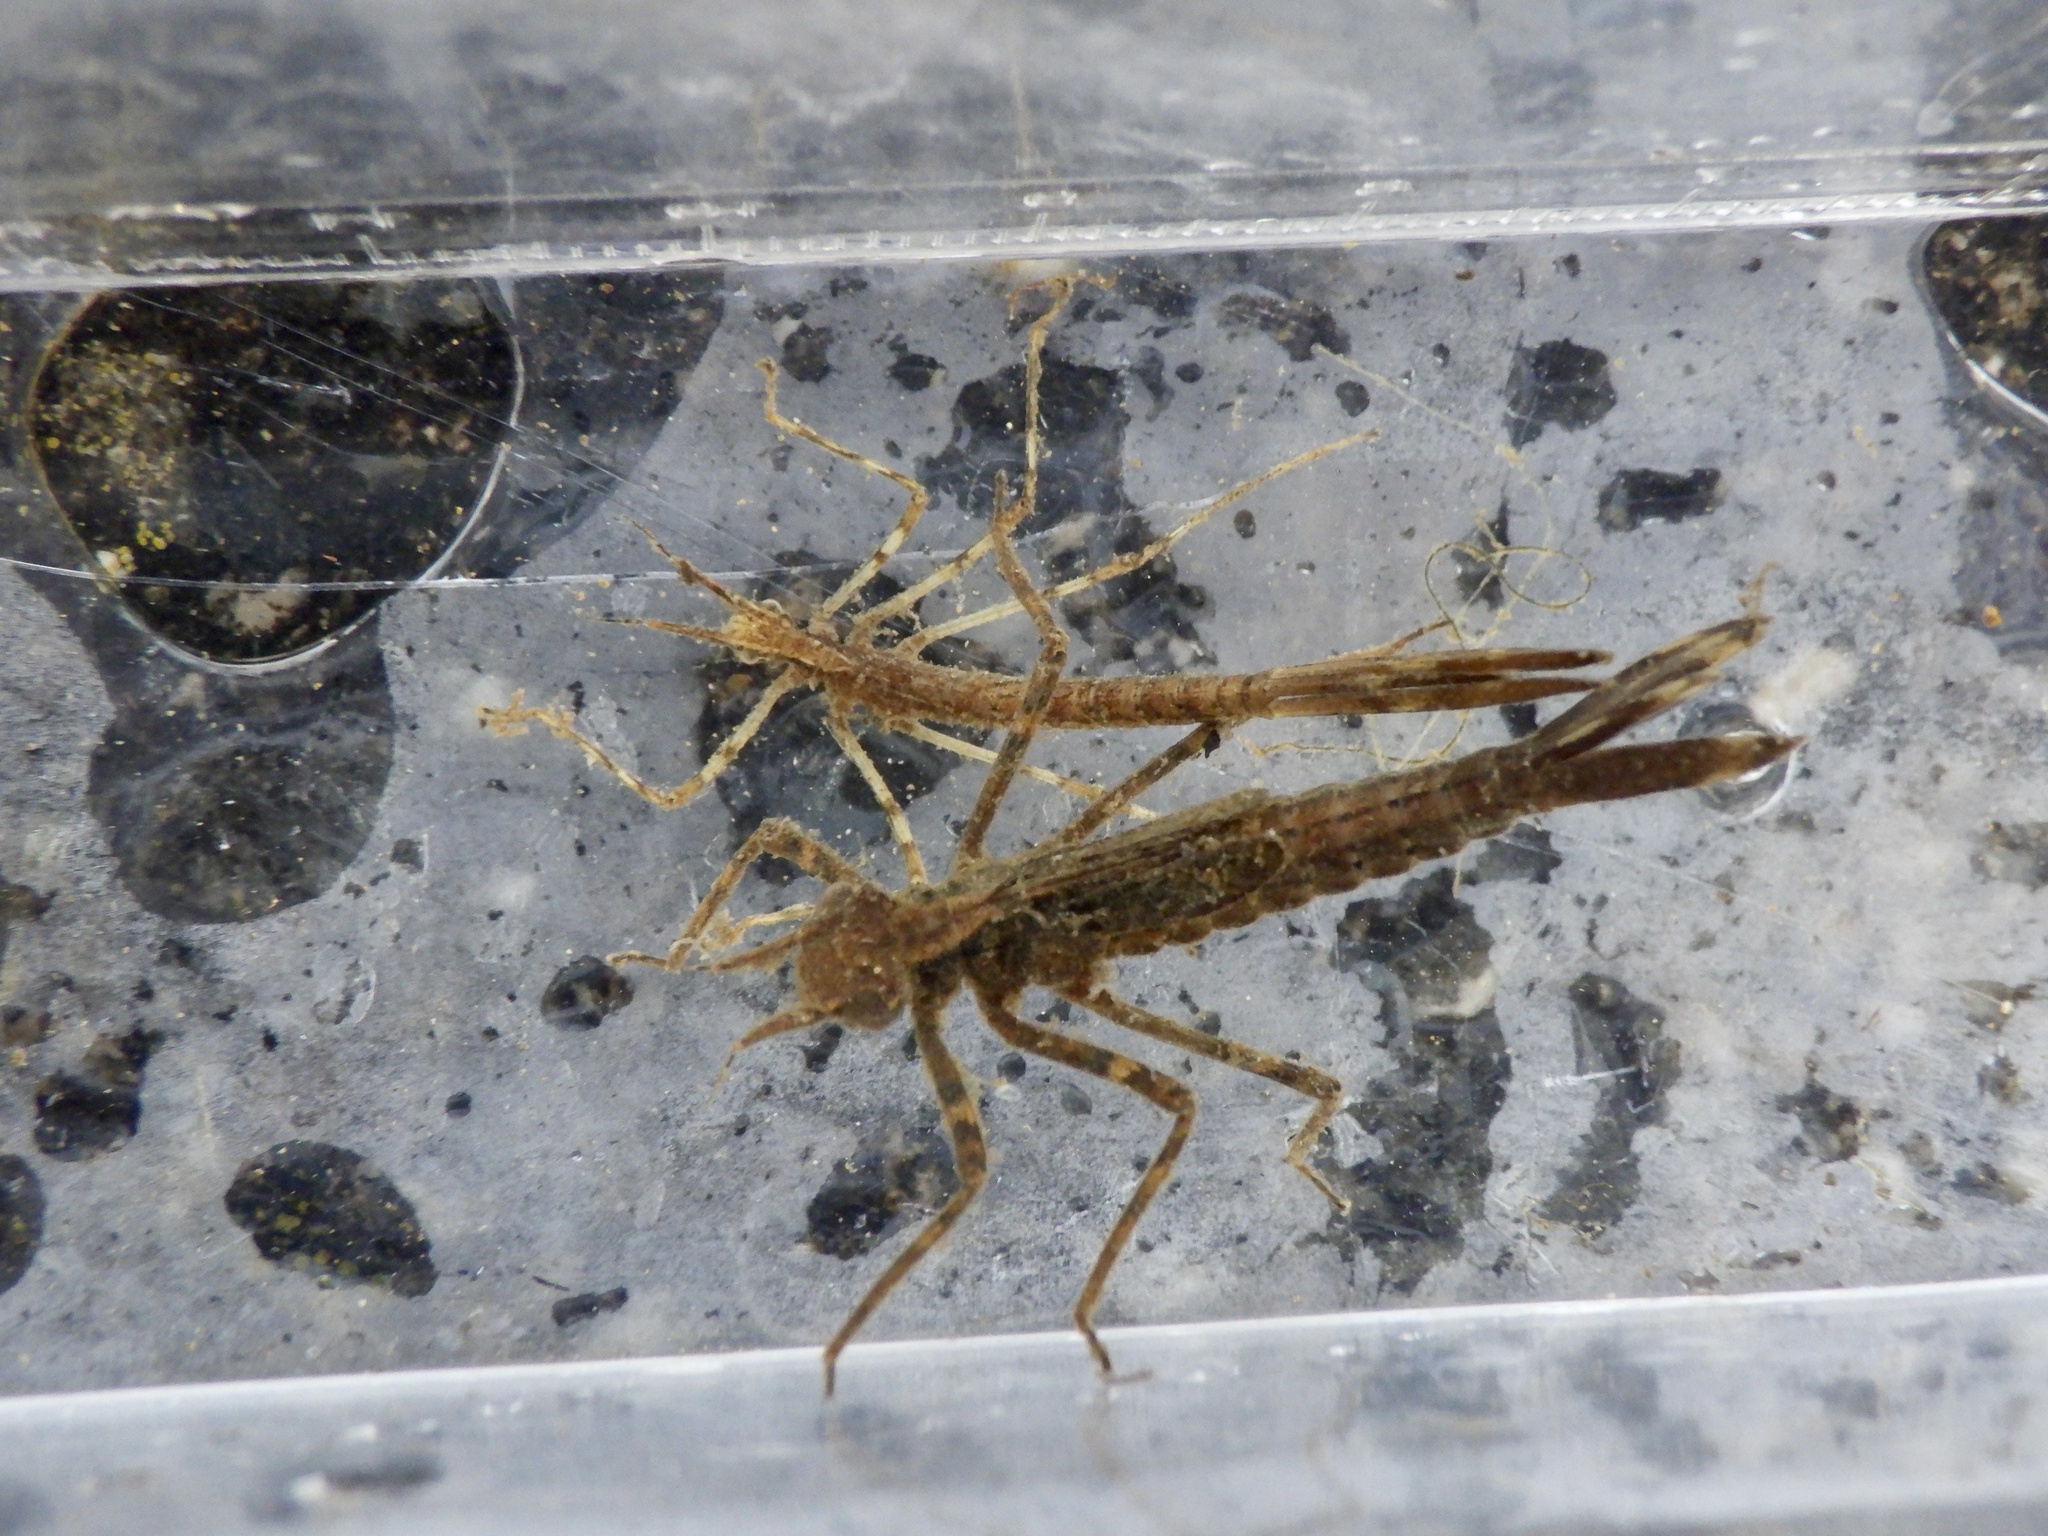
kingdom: Animalia
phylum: Arthropoda
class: Insecta
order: Odonata
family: Calopterygidae
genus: Mnais
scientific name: Mnais costalis
